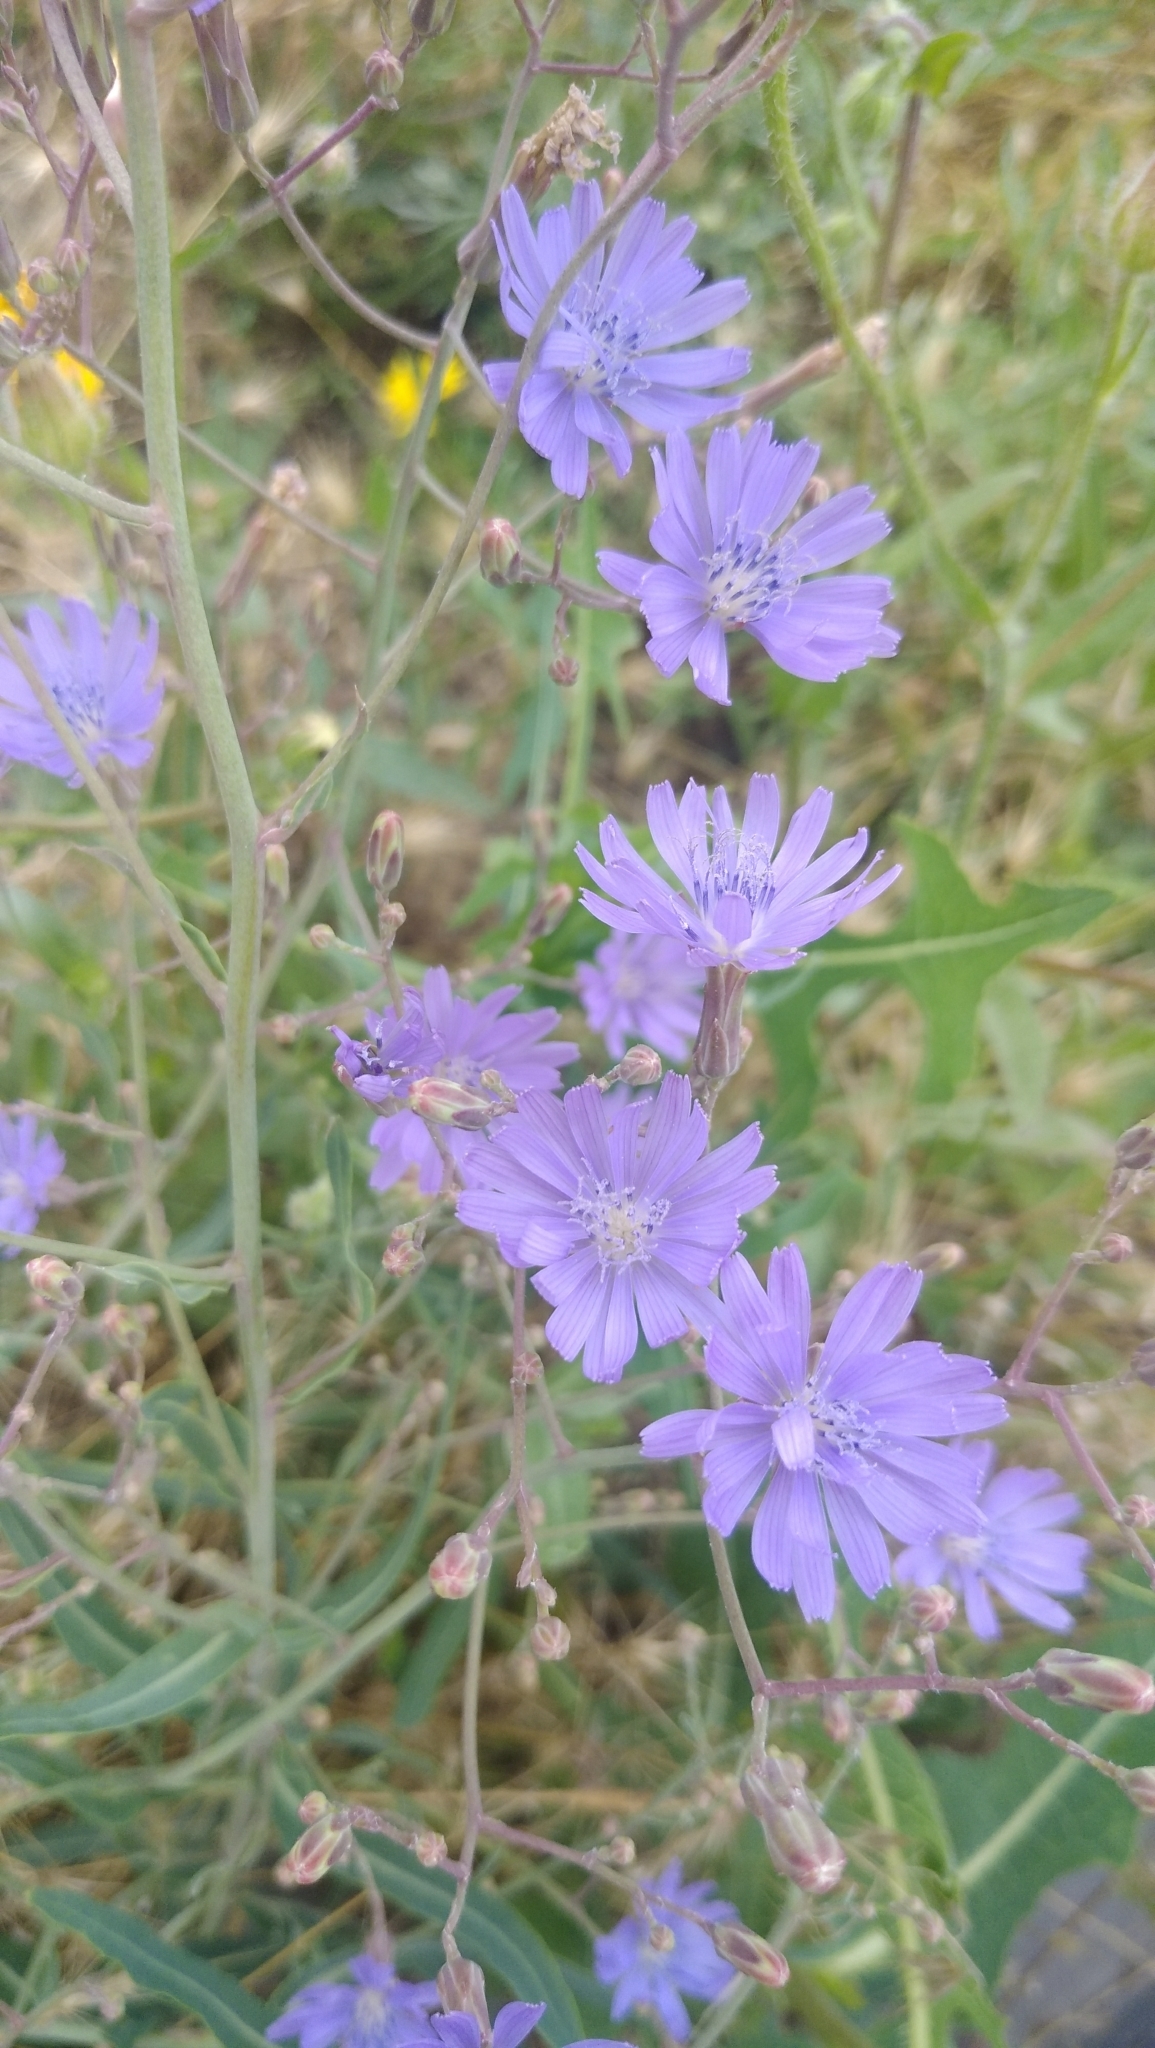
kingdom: Plantae
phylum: Tracheophyta
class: Magnoliopsida
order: Asterales
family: Asteraceae
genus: Lactuca
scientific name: Lactuca tatarica
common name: Blue lettuce
